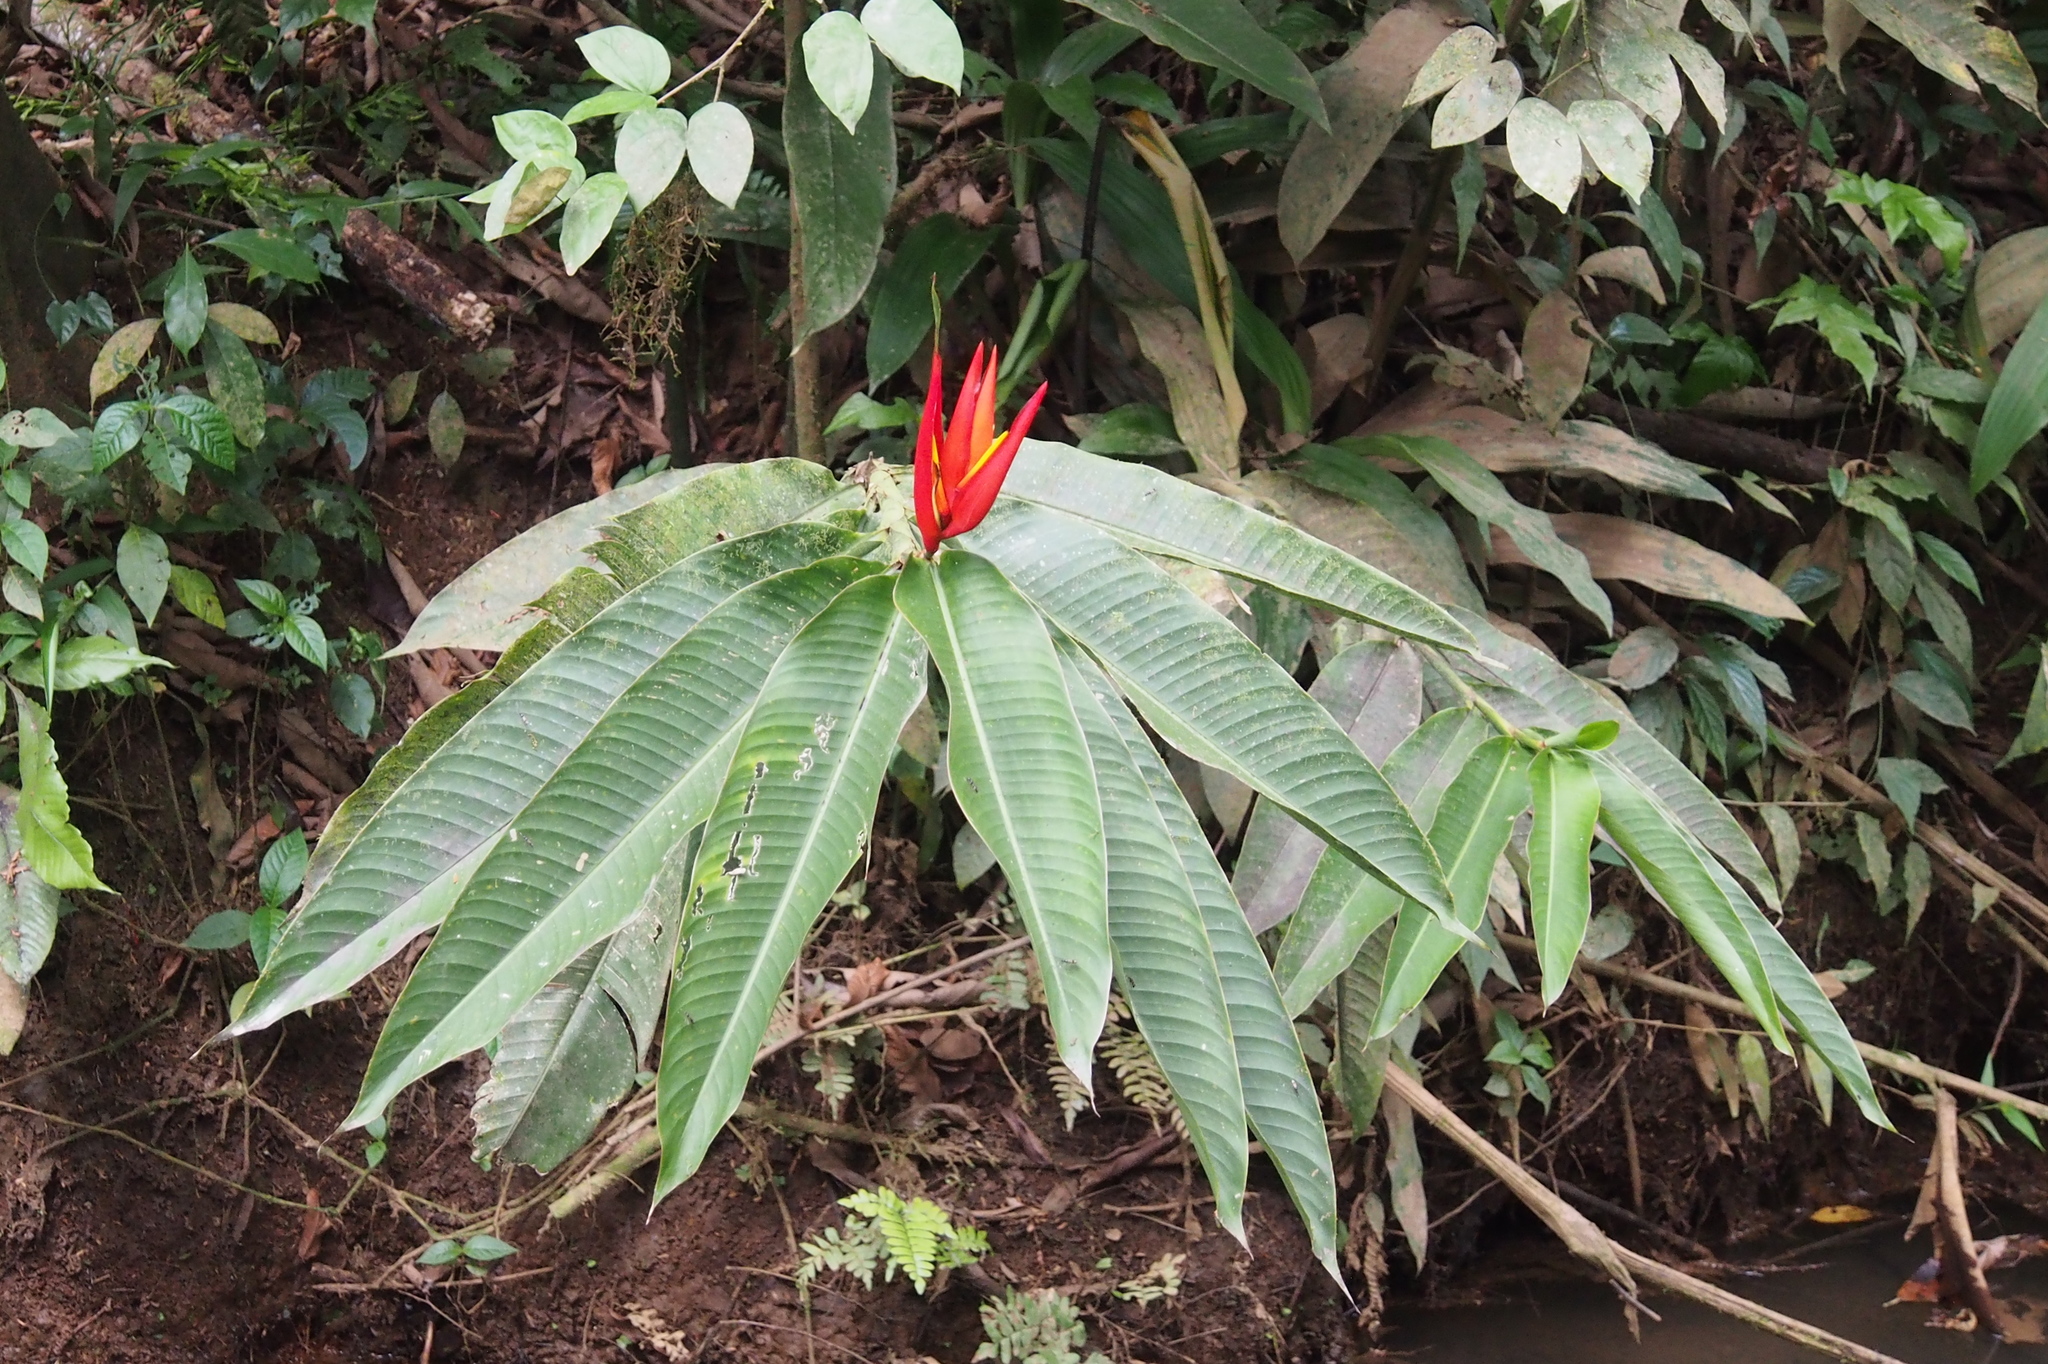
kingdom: Plantae
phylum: Tracheophyta
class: Liliopsida
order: Zingiberales
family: Heliconiaceae
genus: Heliconia
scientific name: Heliconia mathiasiae
